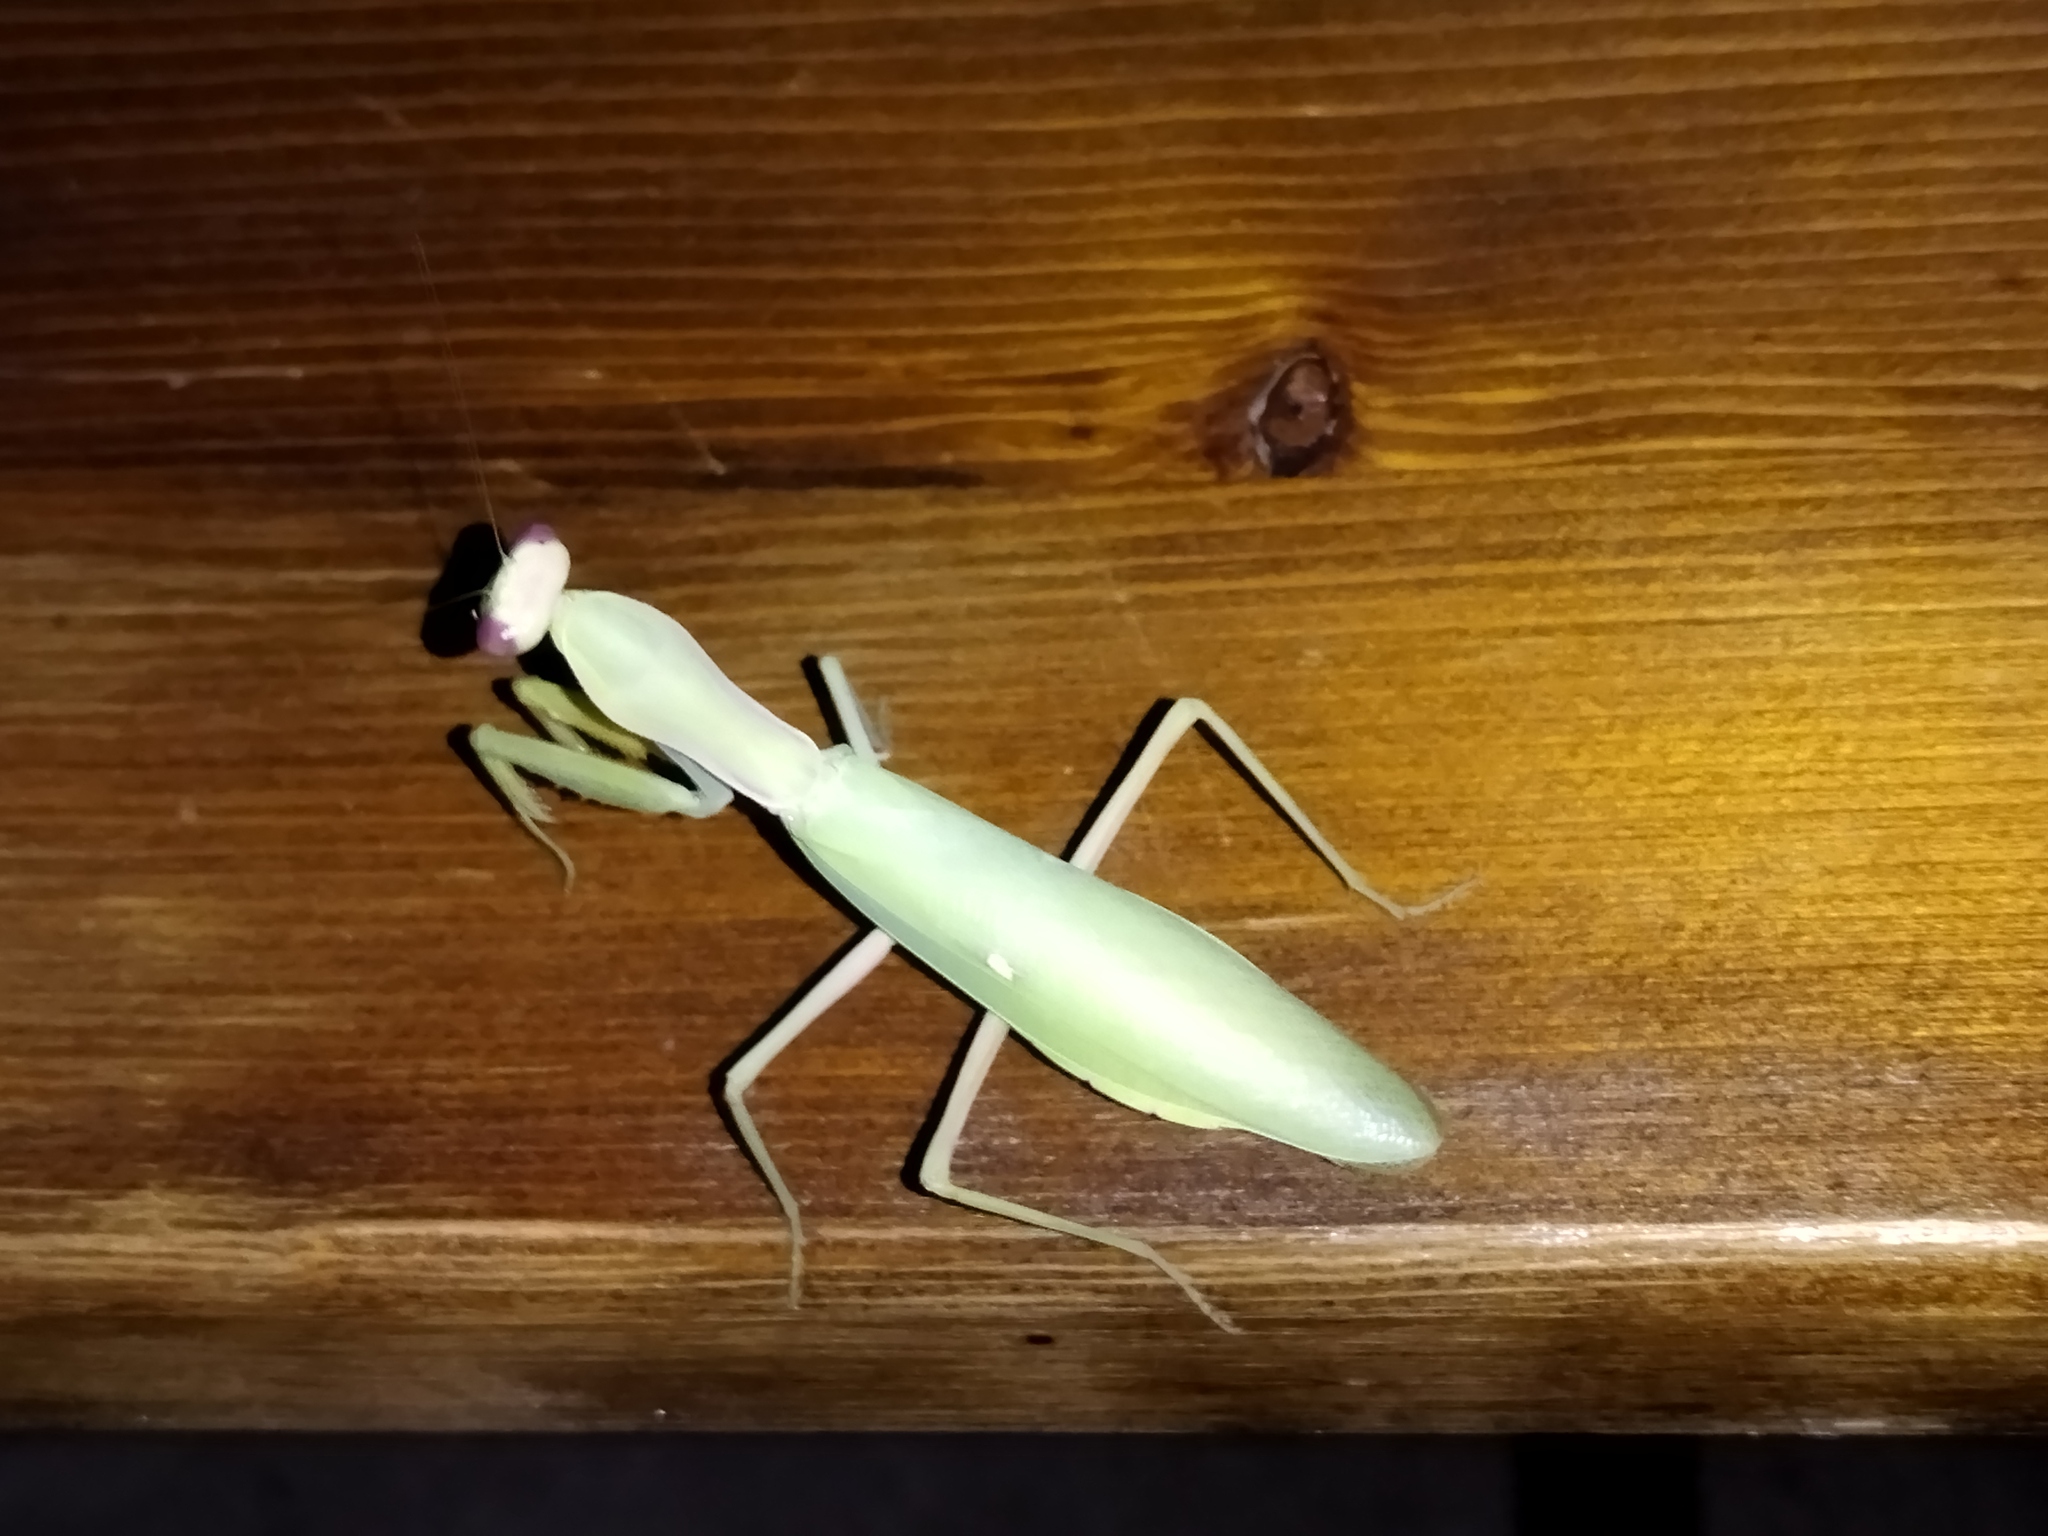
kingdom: Animalia
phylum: Arthropoda
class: Insecta
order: Mantodea
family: Mantidae
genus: Hierodula
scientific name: Hierodula transcaucasica
